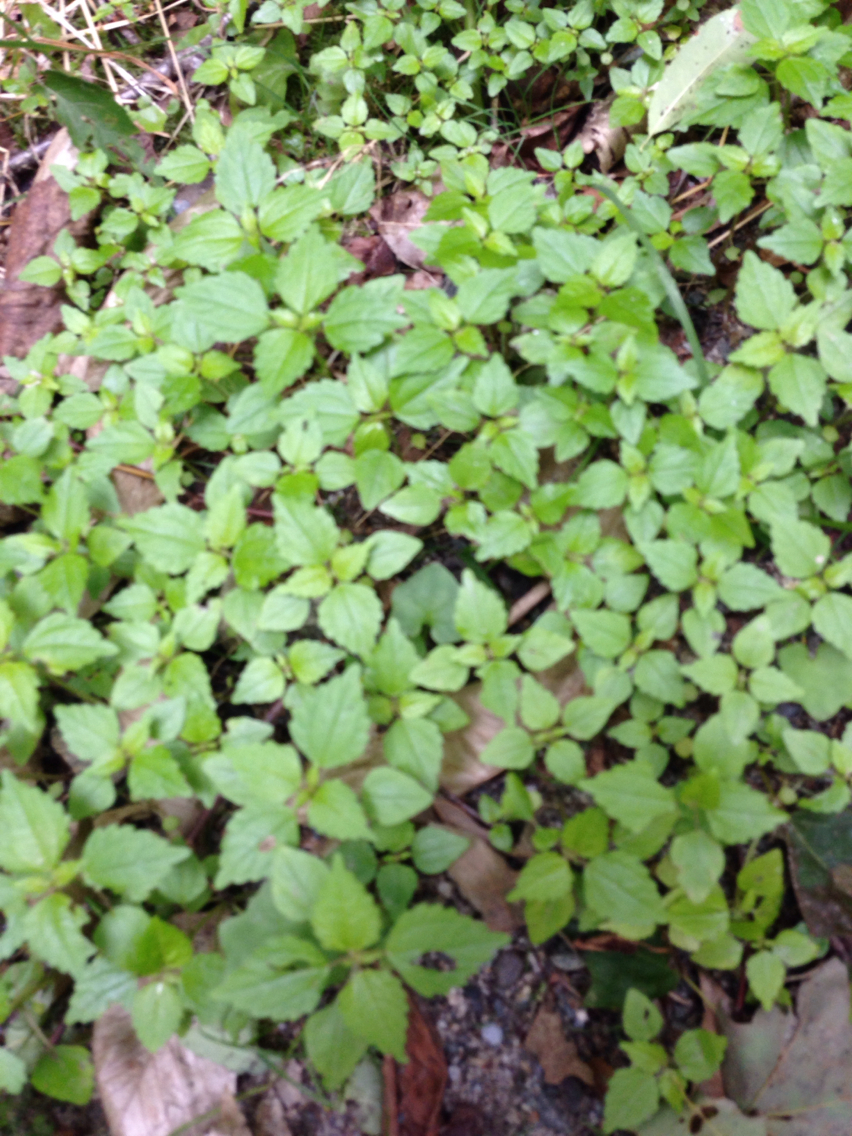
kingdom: Plantae
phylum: Tracheophyta
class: Magnoliopsida
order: Rosales
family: Urticaceae
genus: Pilea
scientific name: Pilea pumila
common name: Clearweed
